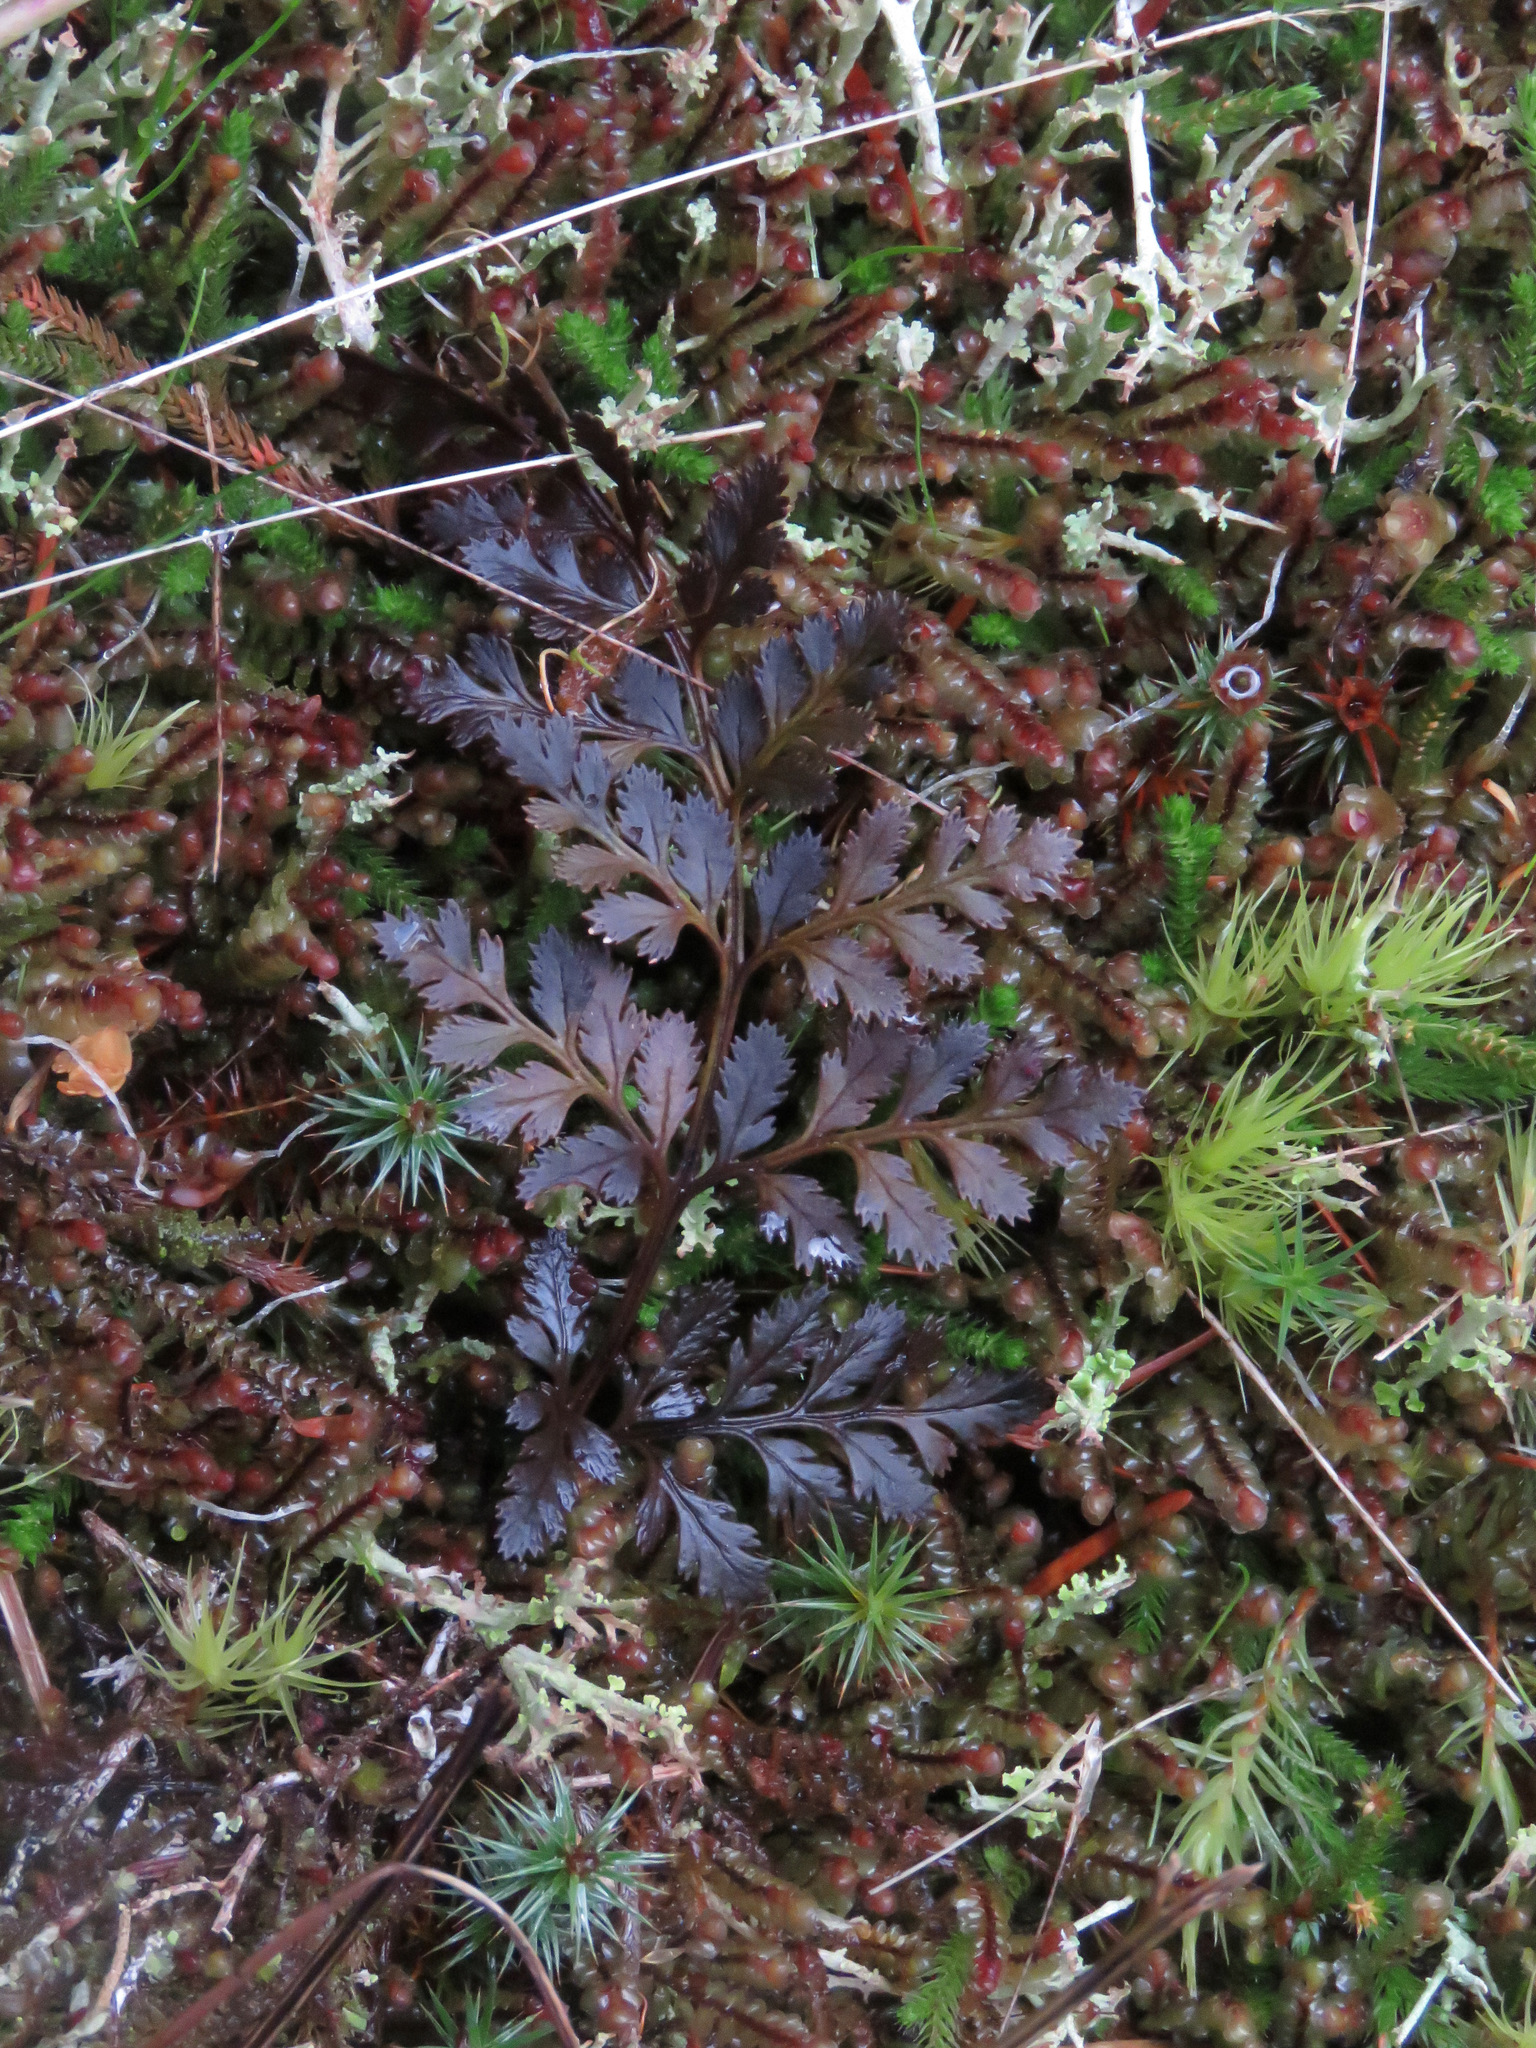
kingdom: Plantae
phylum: Tracheophyta
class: Polypodiopsida
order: Polypodiales
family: Pteridaceae
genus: Cryptogramma
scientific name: Cryptogramma acrostichoides
